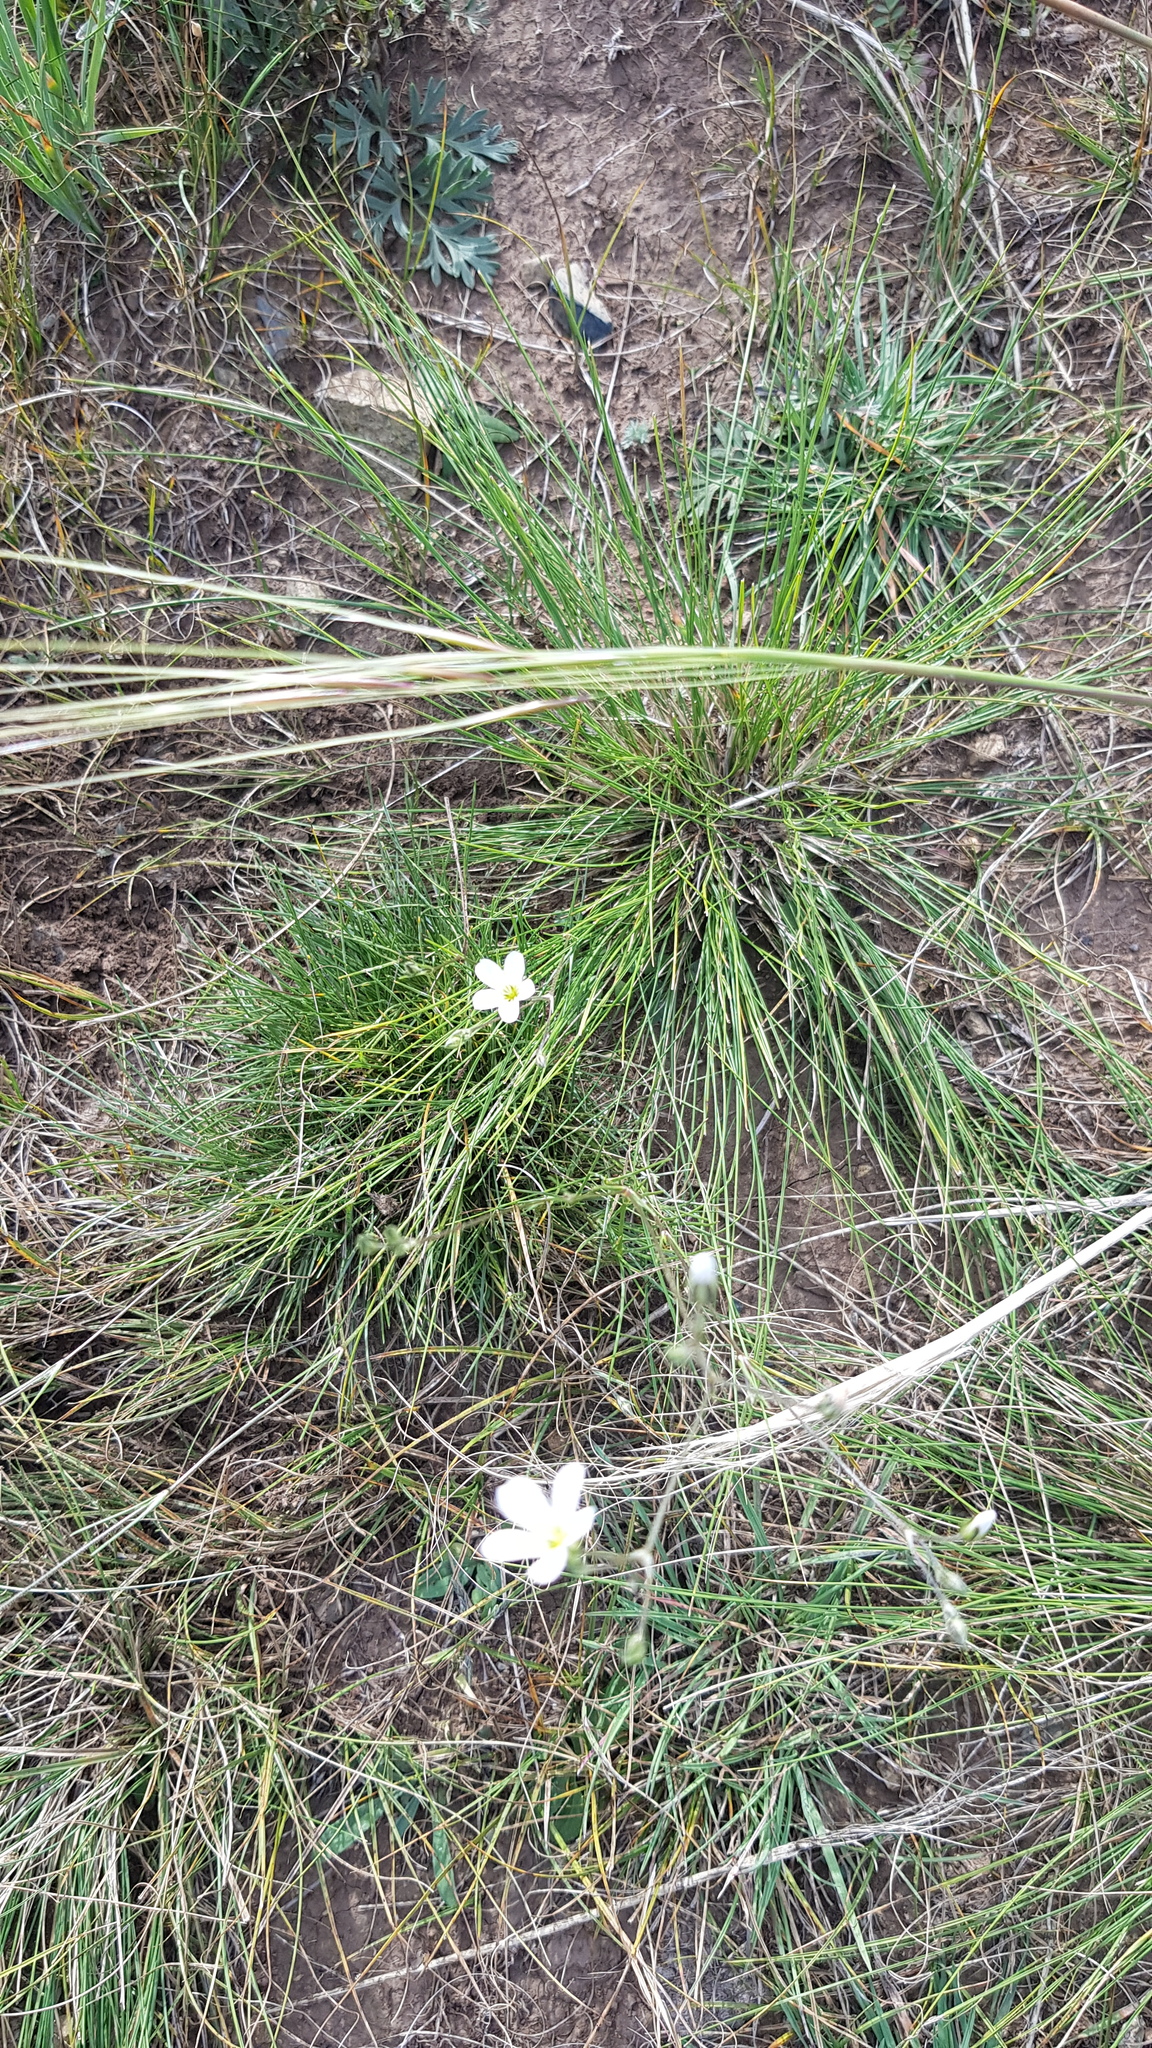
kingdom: Plantae
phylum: Tracheophyta
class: Magnoliopsida
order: Caryophyllales
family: Caryophyllaceae
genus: Eremogone
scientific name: Eremogone capillaris
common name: Slender mountain sandwort
